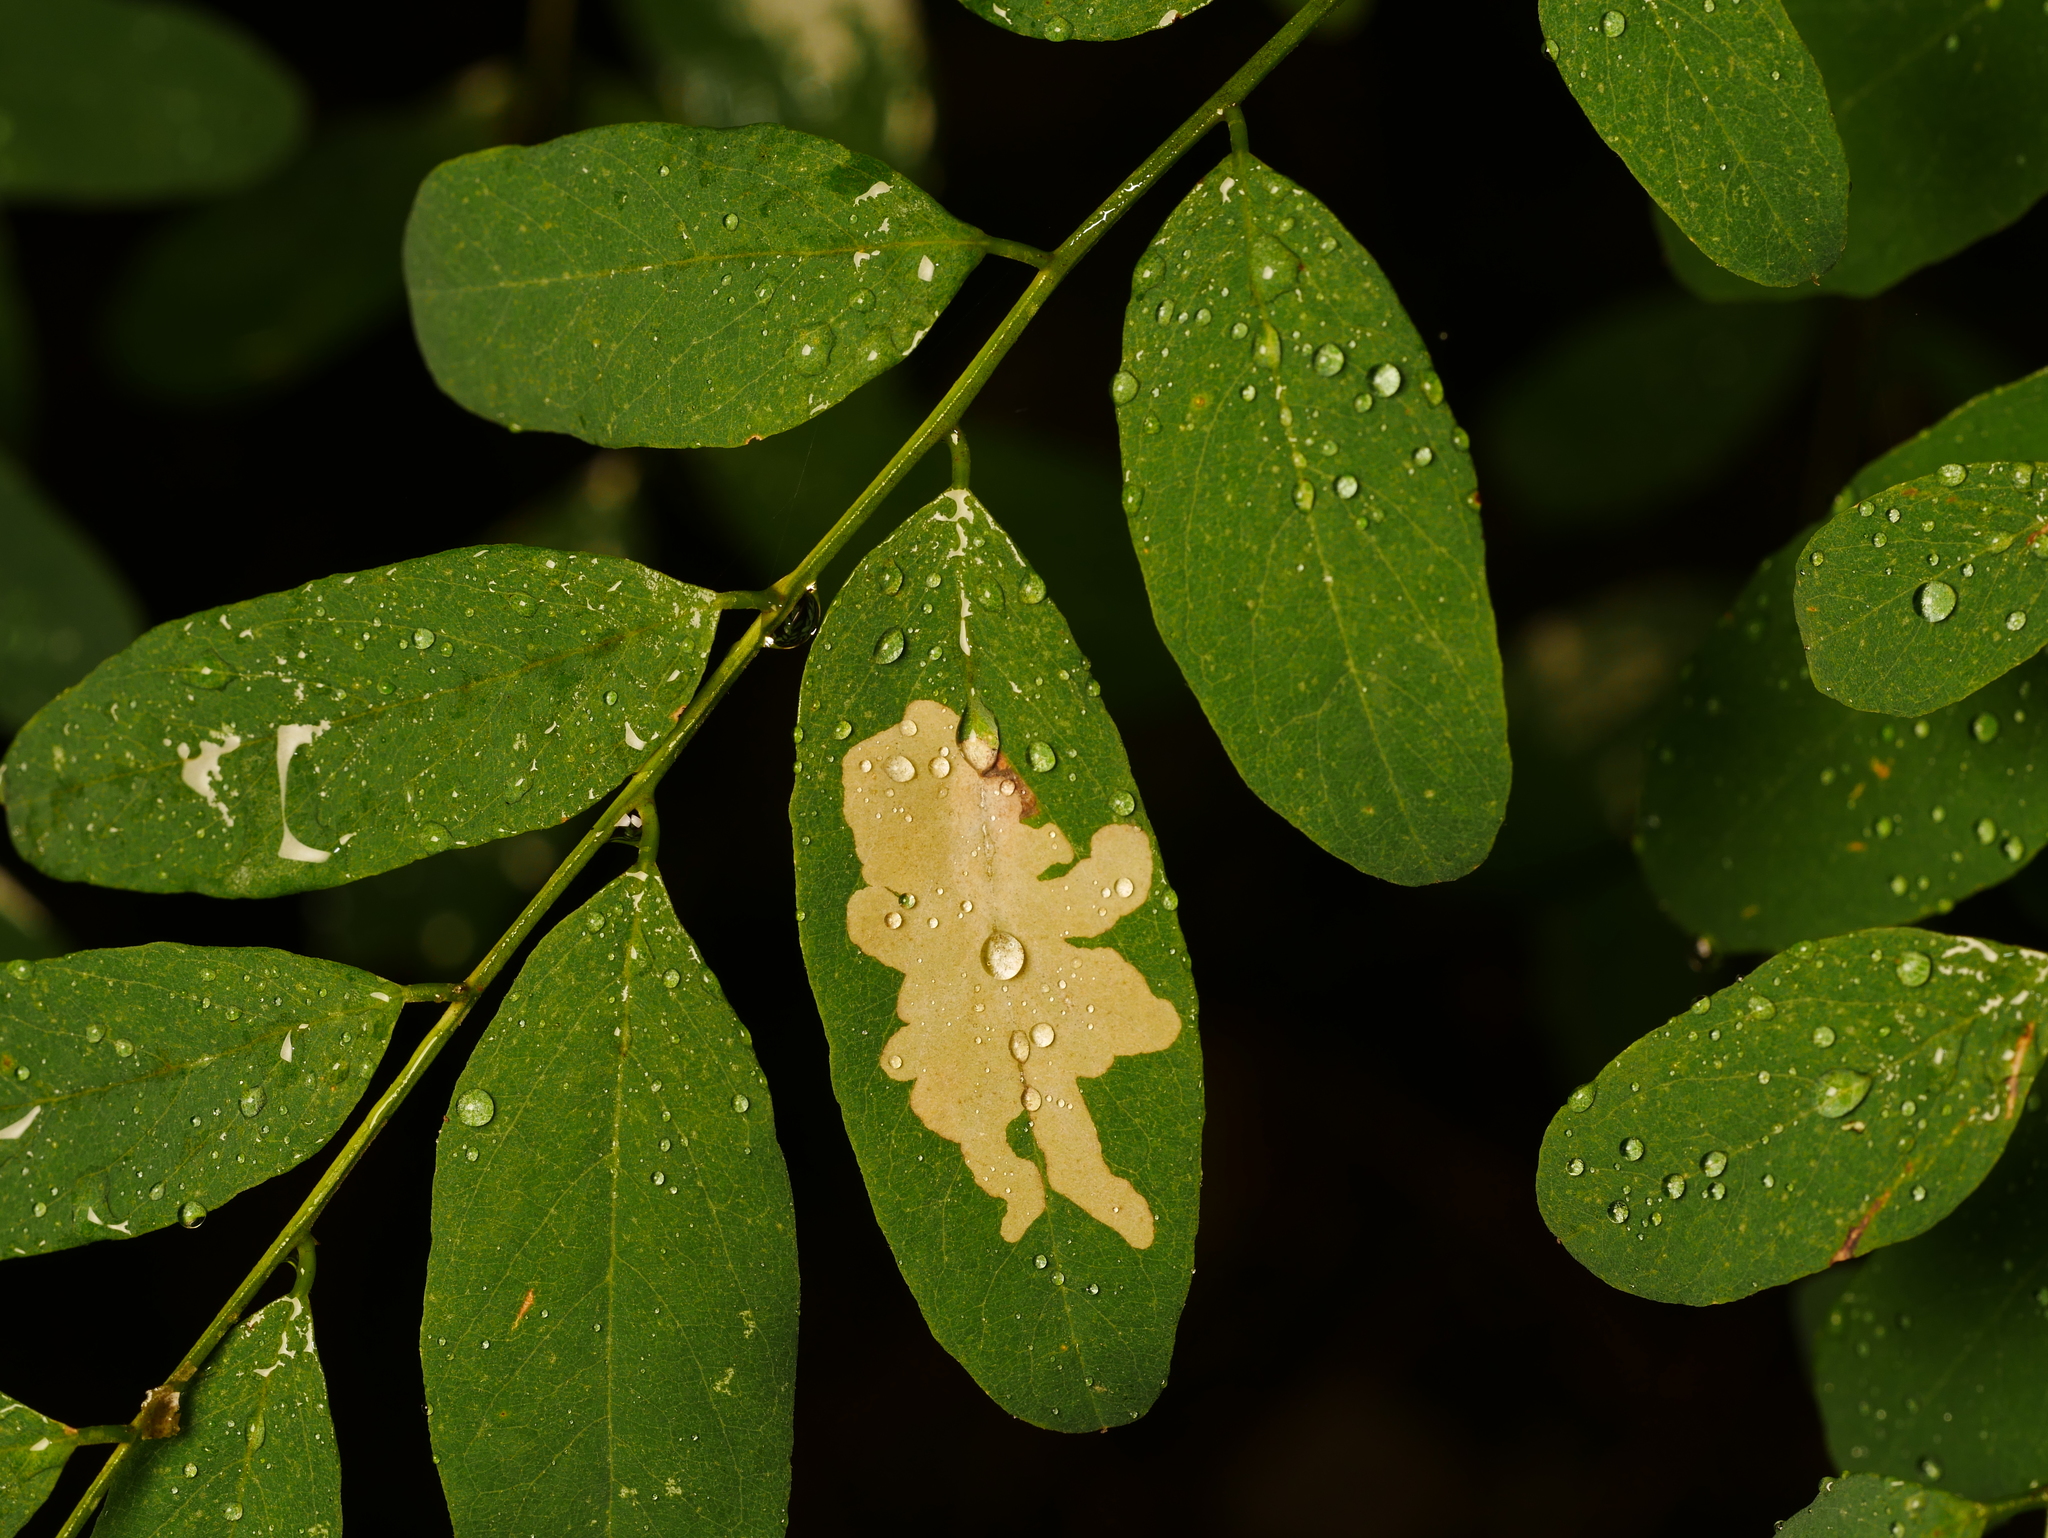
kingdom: Animalia
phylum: Arthropoda
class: Insecta
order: Lepidoptera
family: Gracillariidae
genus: Parectopa
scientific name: Parectopa robiniella
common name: Locust digitate leafminer
